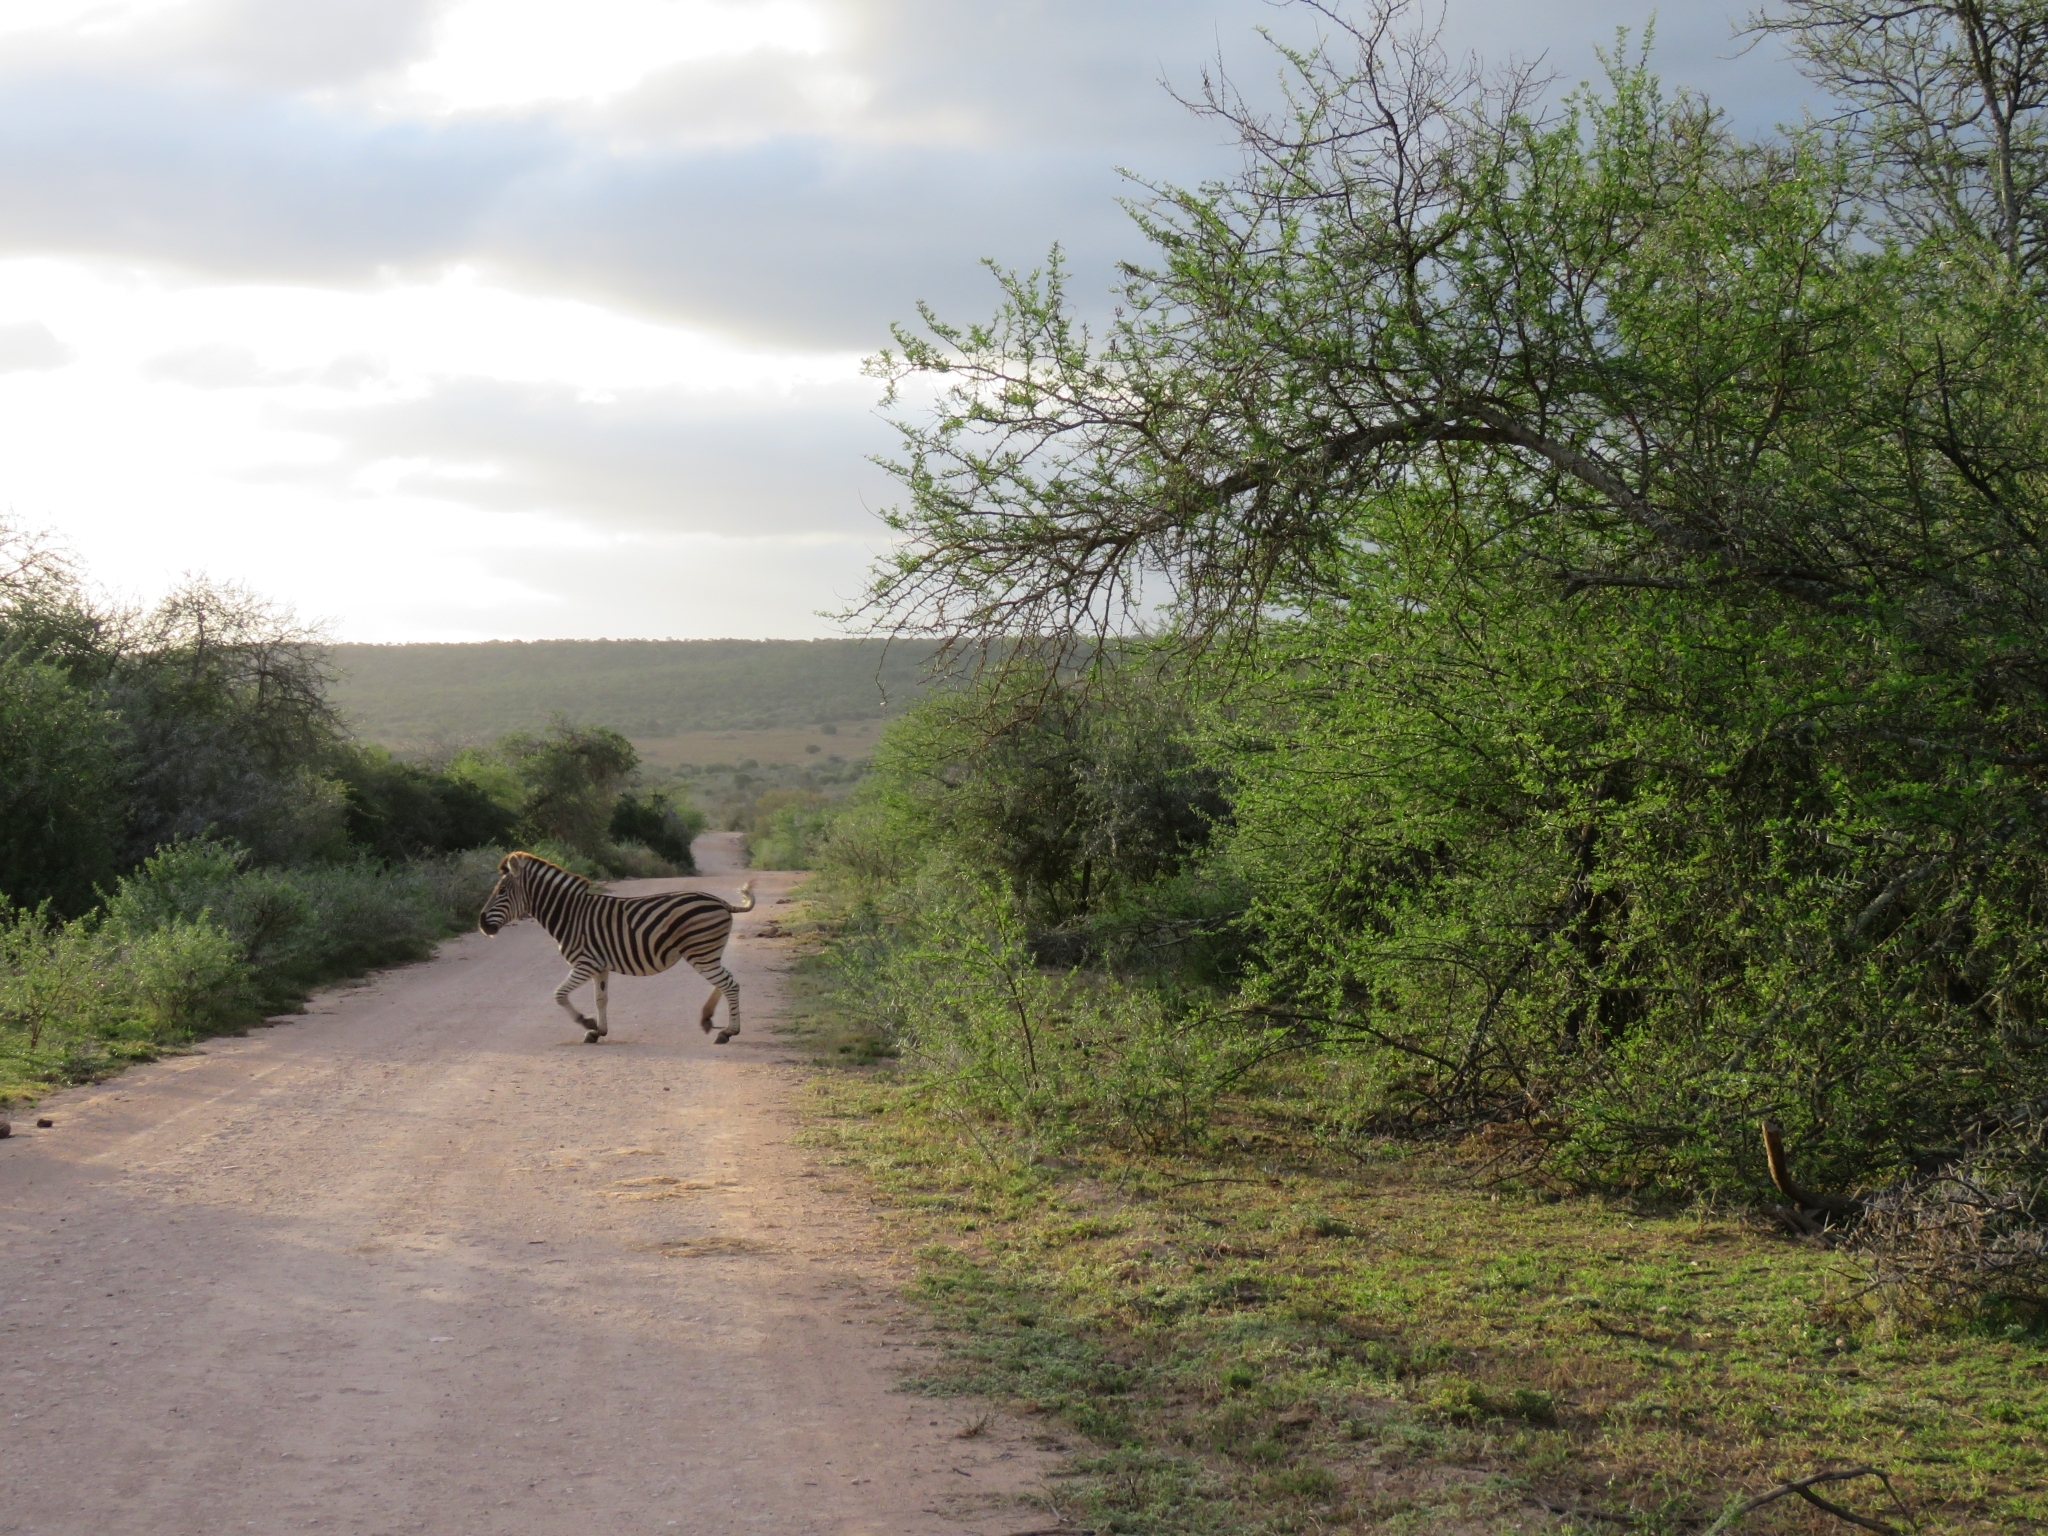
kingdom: Animalia
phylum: Chordata
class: Mammalia
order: Perissodactyla
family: Equidae
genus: Equus
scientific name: Equus quagga
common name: Plains zebra
